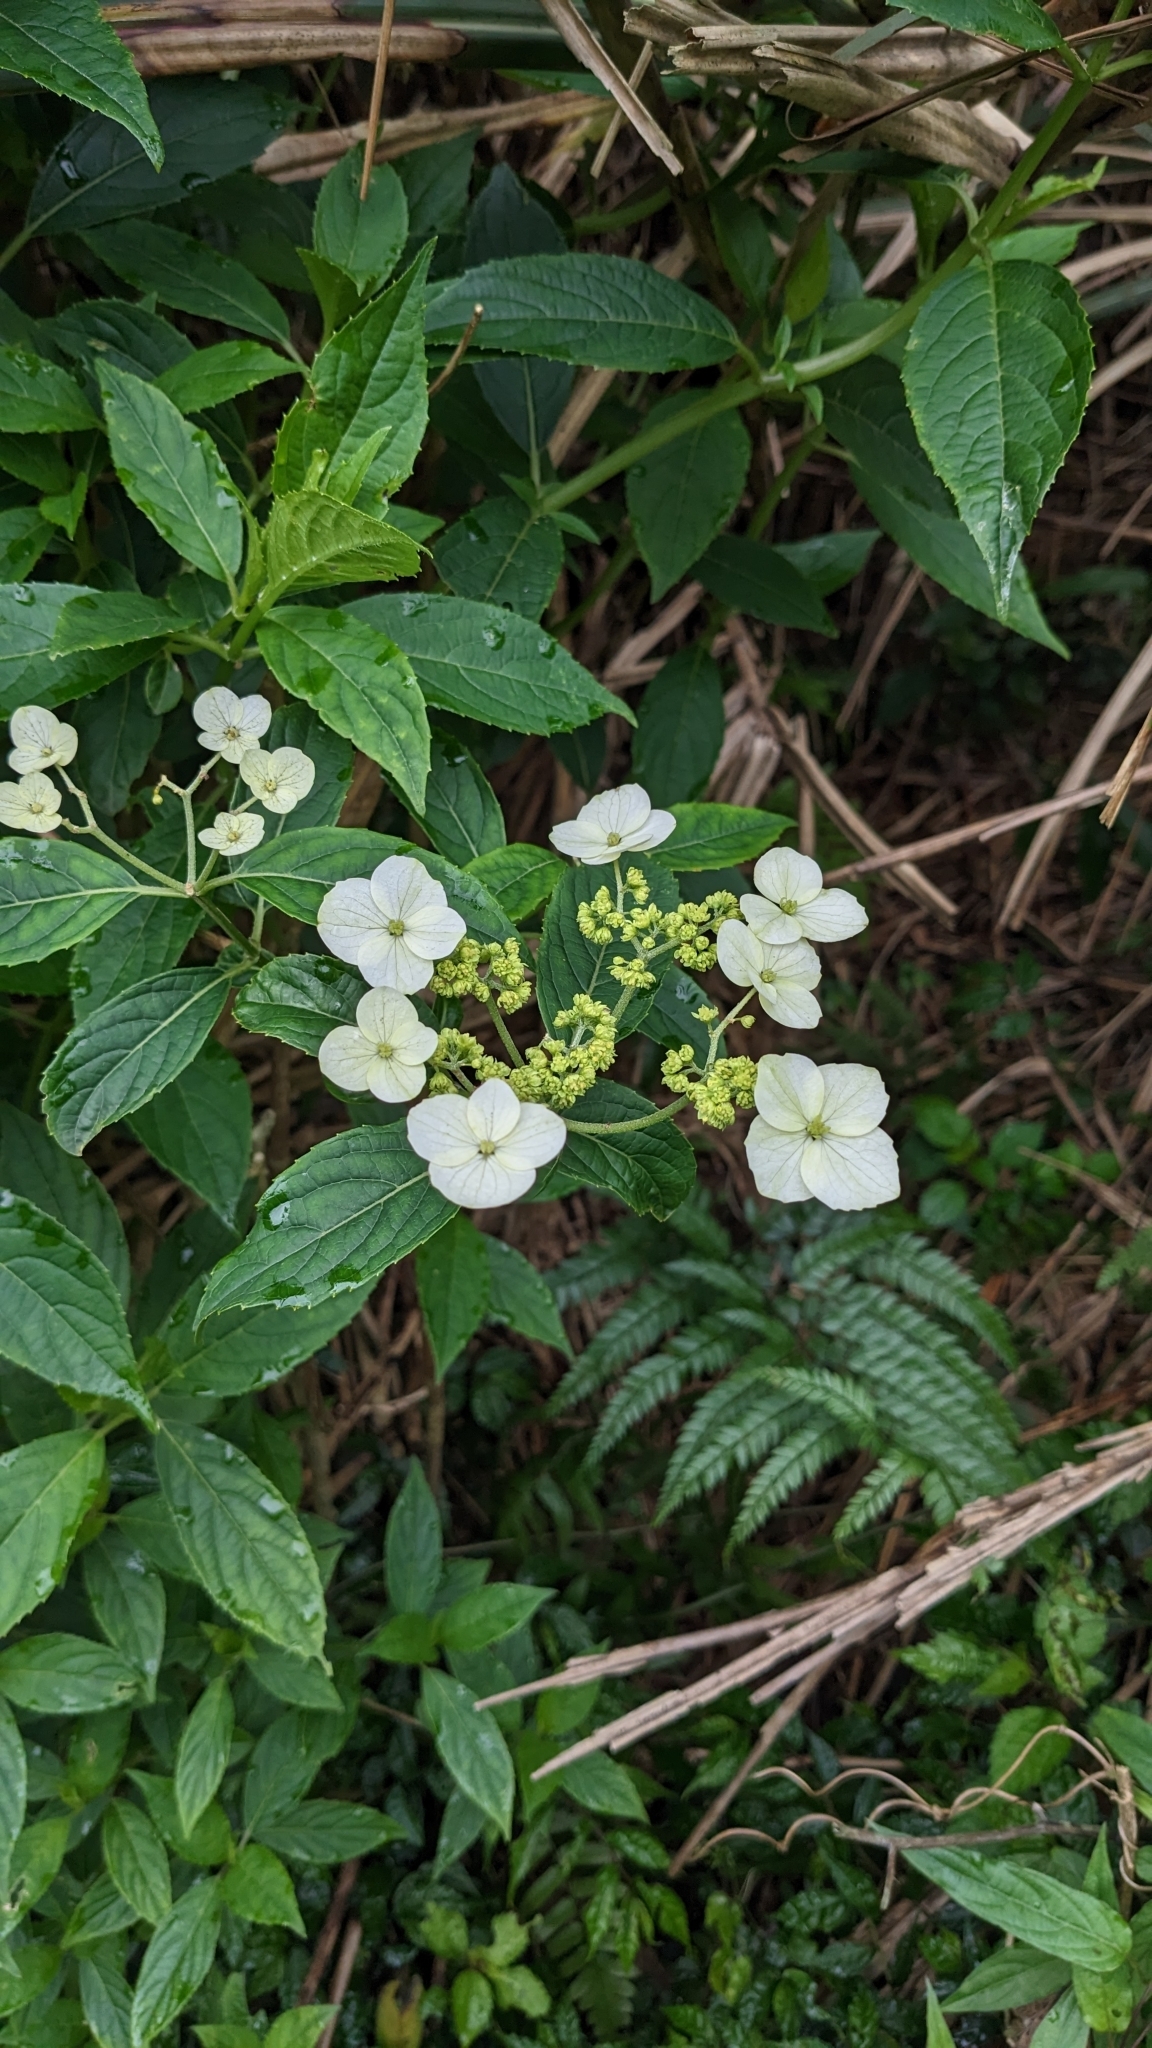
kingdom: Plantae
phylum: Tracheophyta
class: Magnoliopsida
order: Cornales
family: Hydrangeaceae
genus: Hydrangea
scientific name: Hydrangea chinensis
